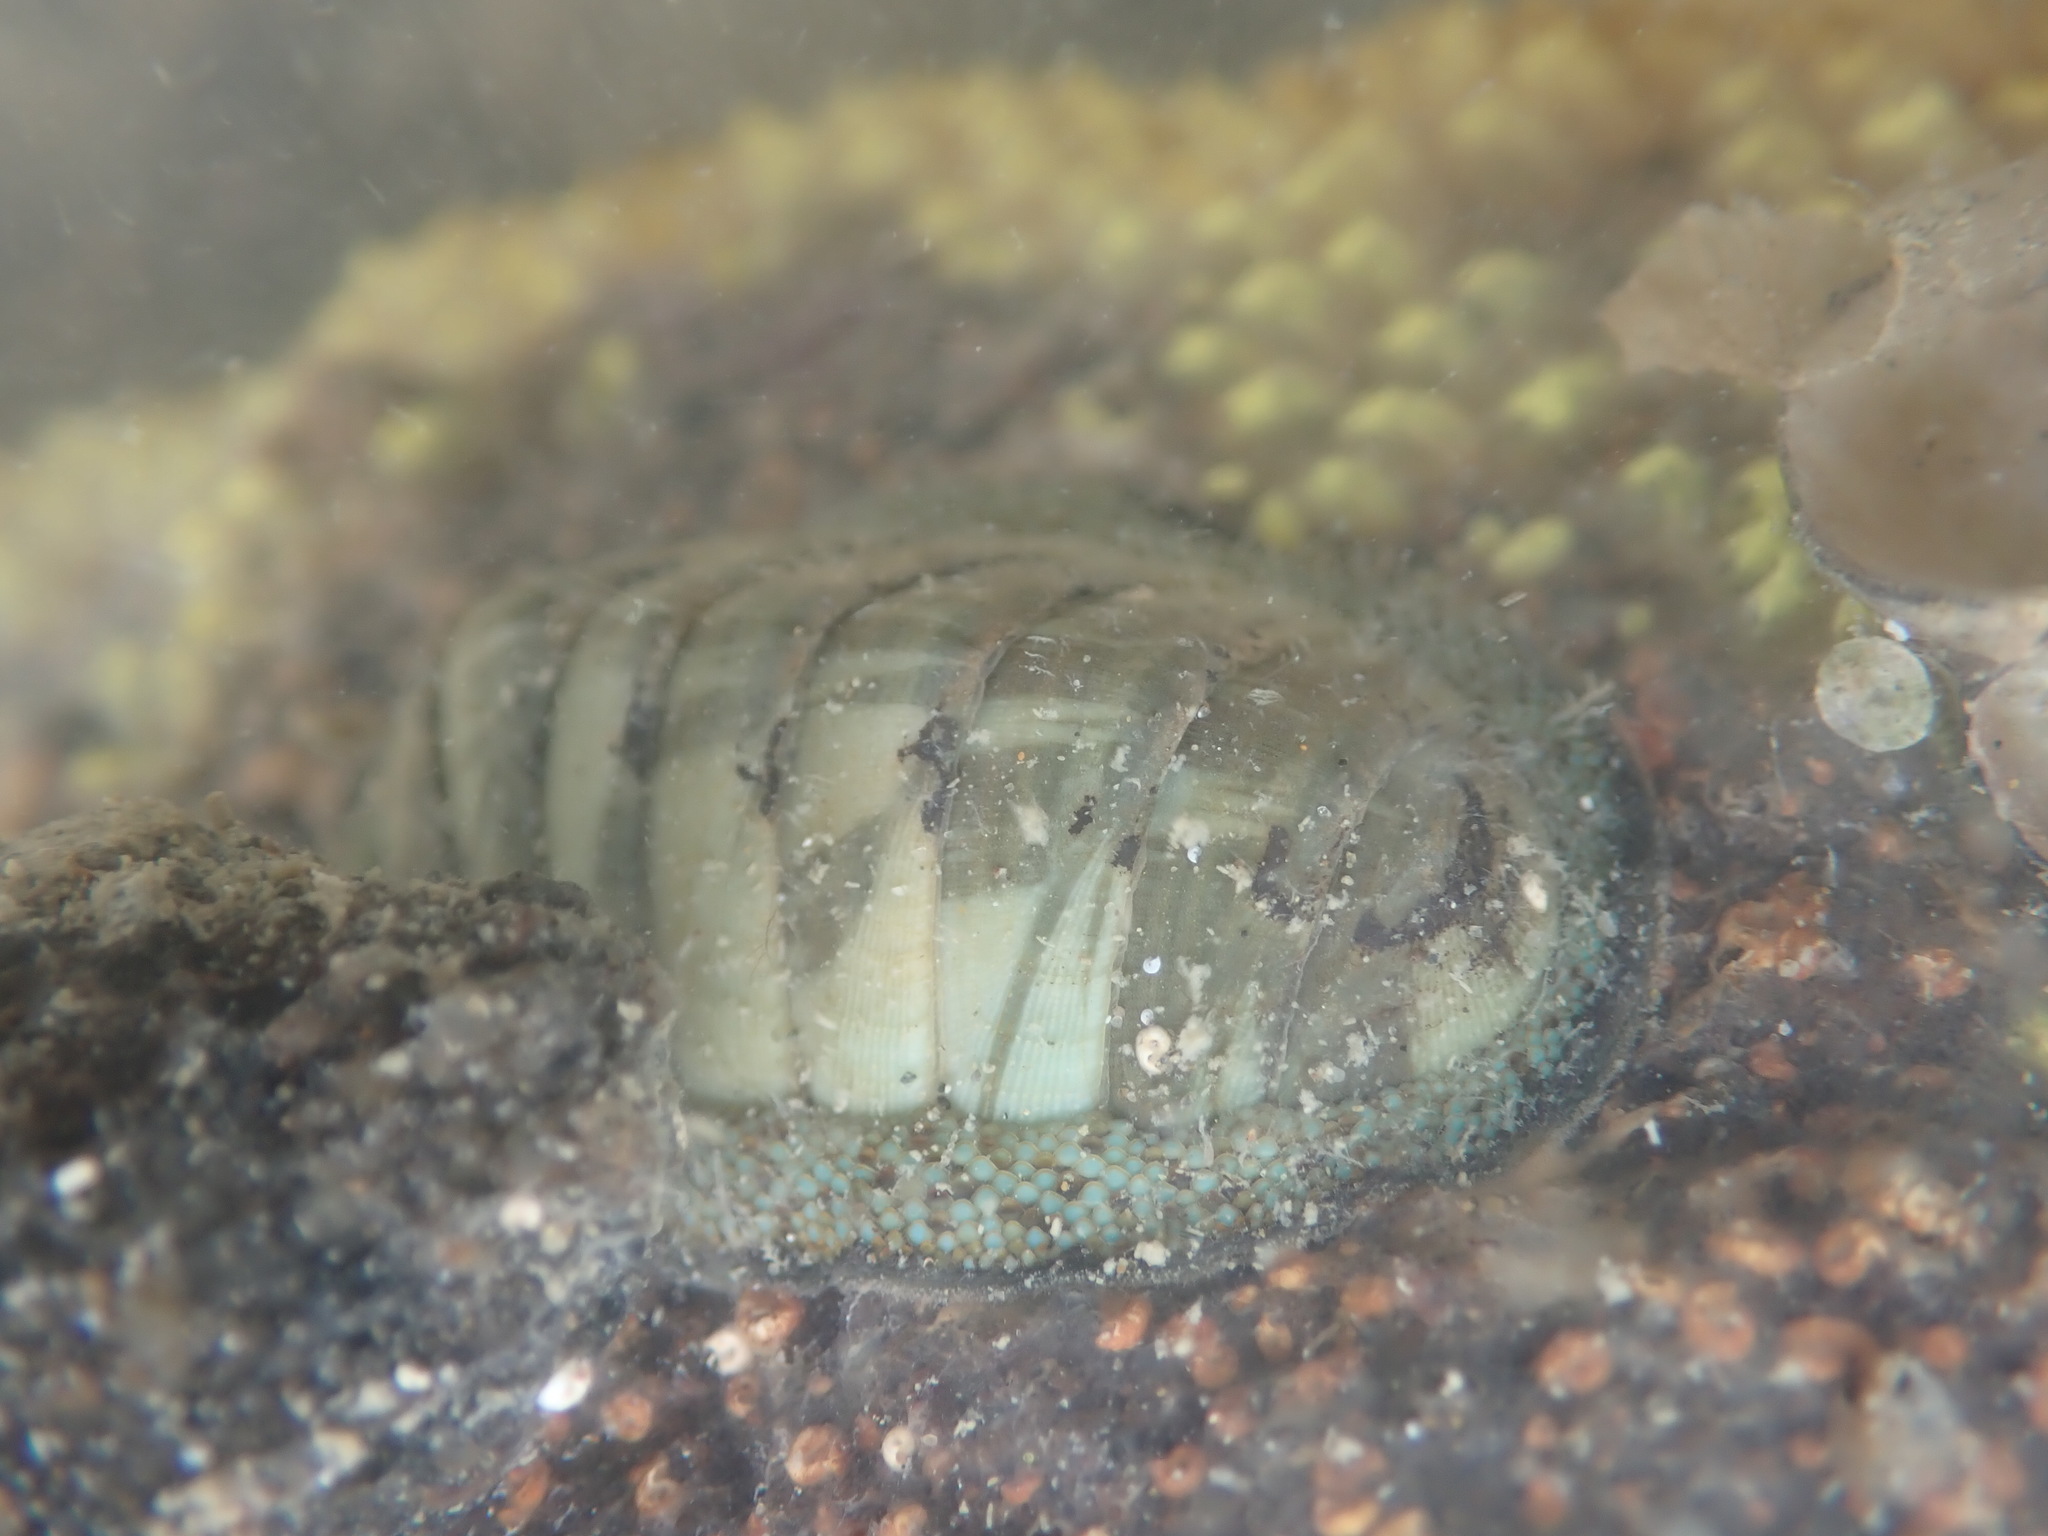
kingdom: Animalia
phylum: Mollusca
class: Polyplacophora
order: Chitonida
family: Chitonidae
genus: Chiton
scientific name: Chiton glaucus
